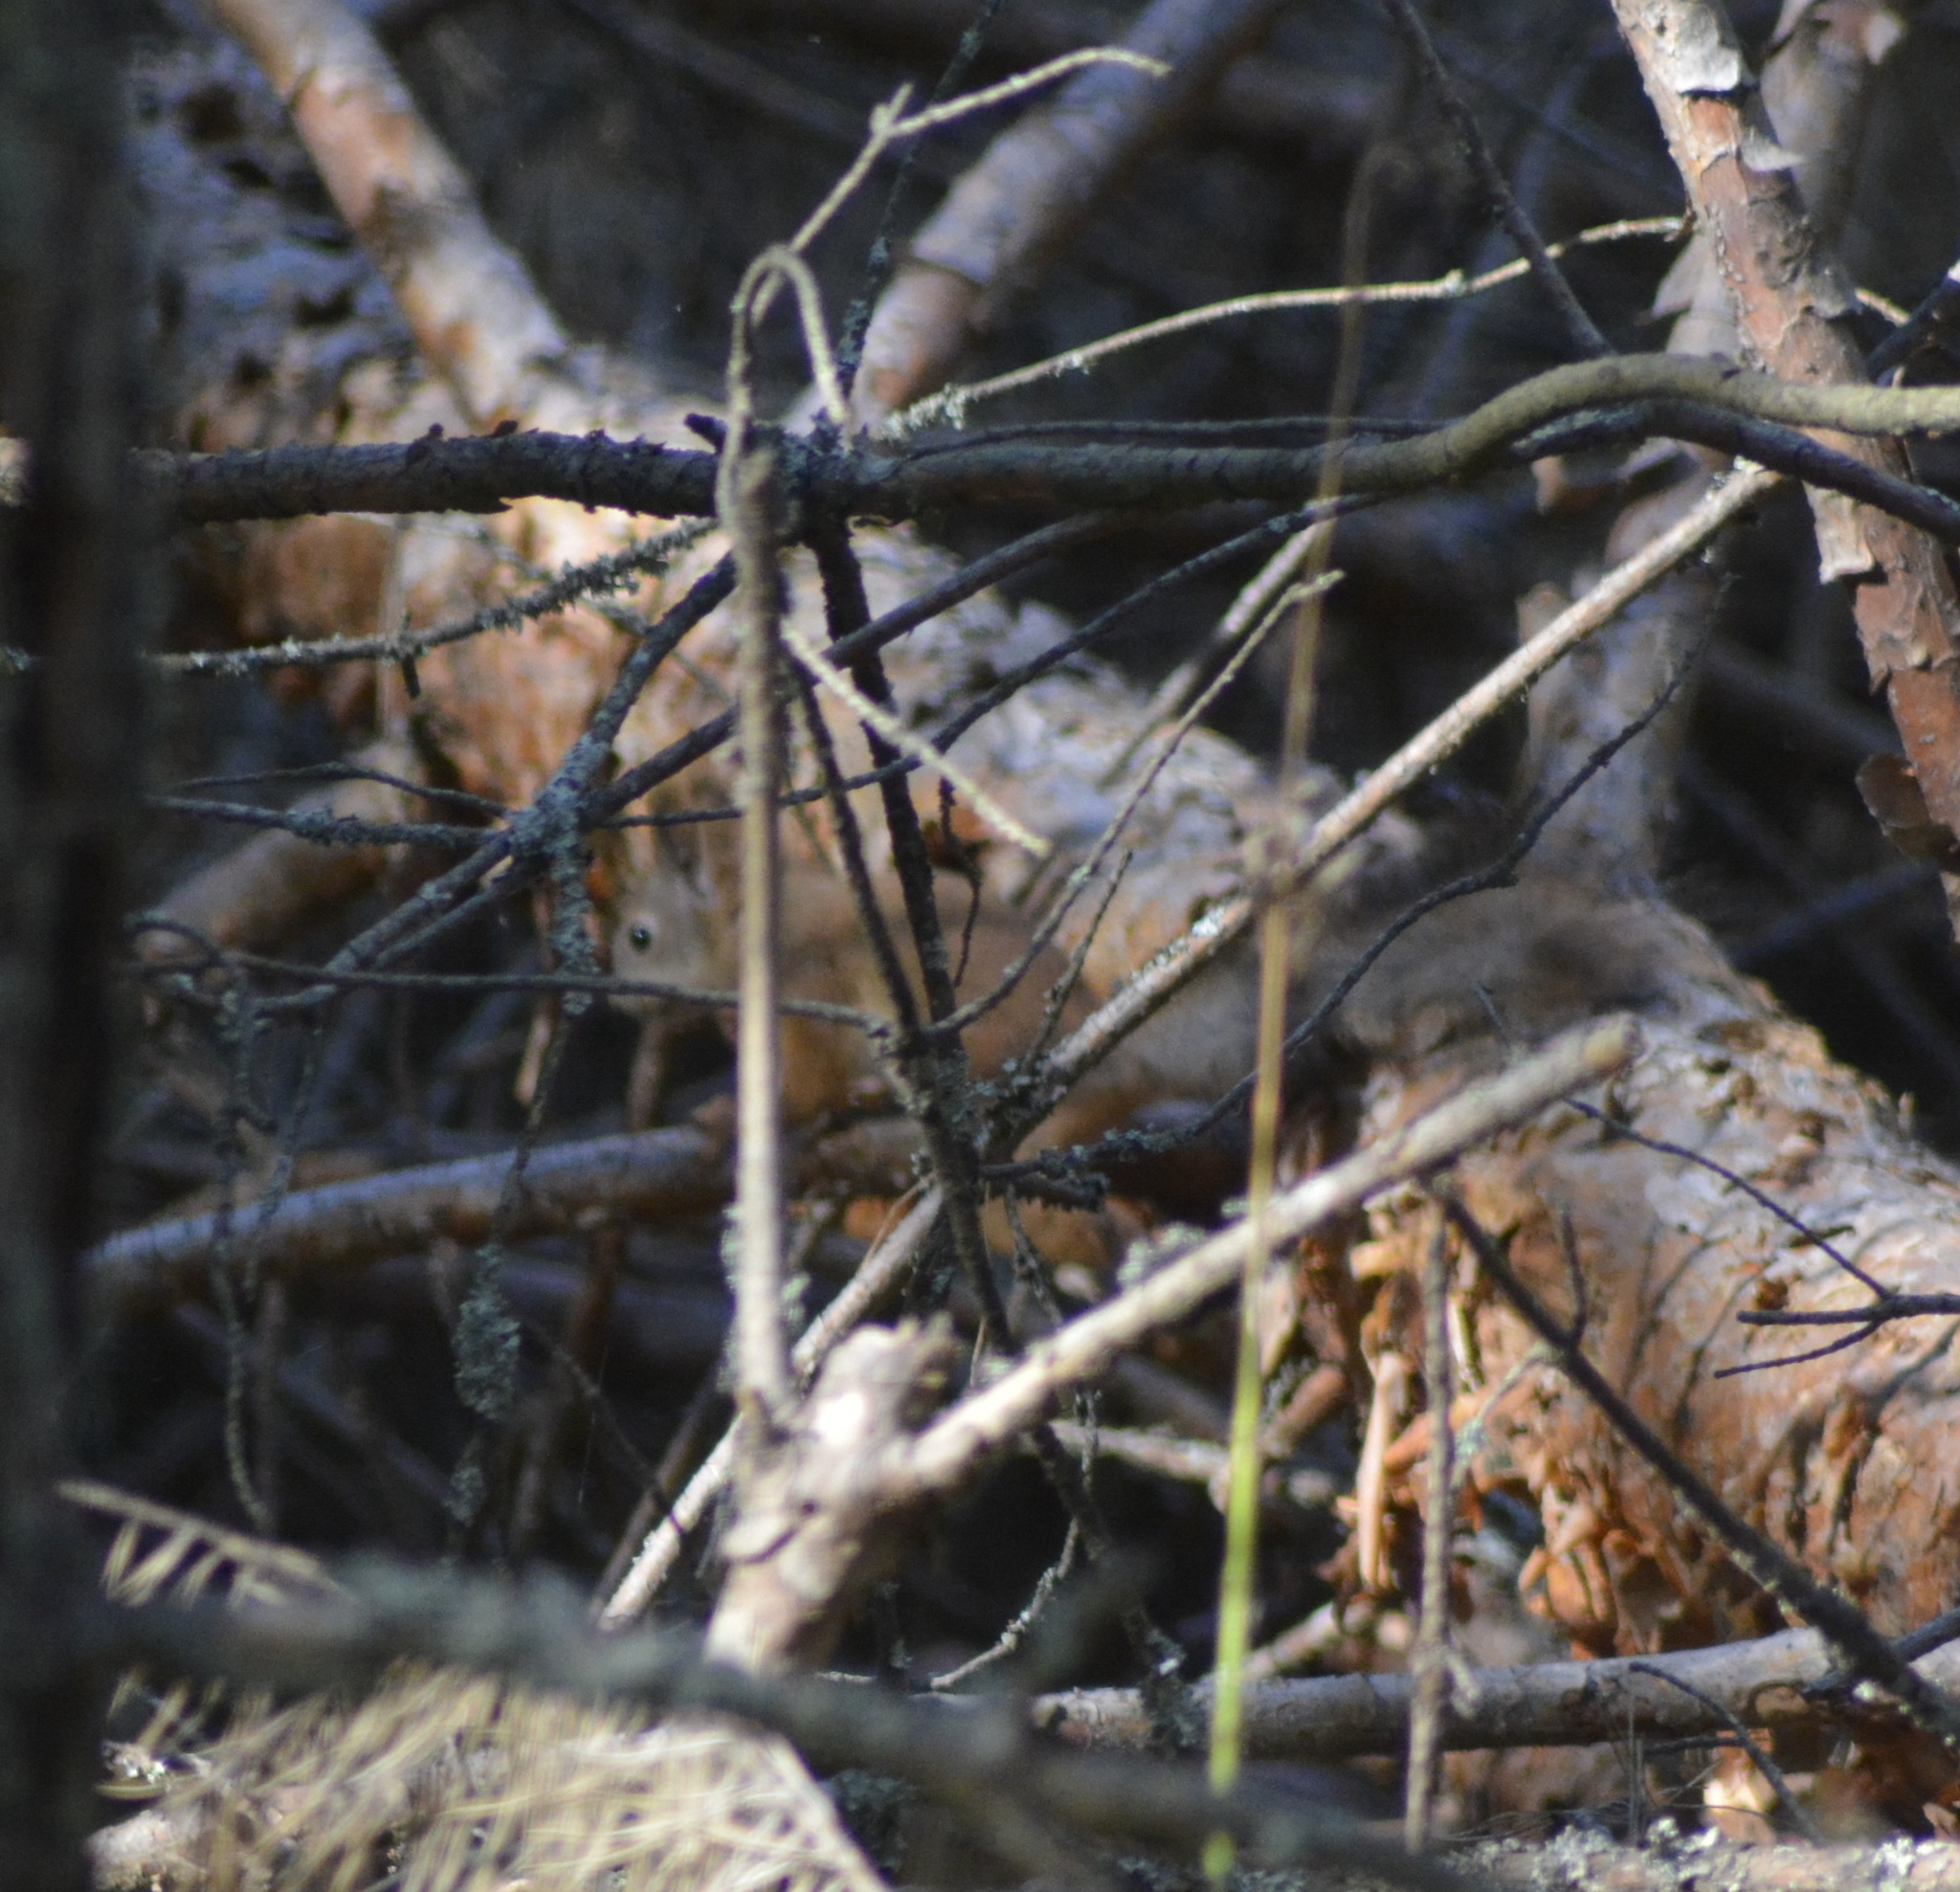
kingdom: Animalia
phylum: Chordata
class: Mammalia
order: Rodentia
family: Sciuridae
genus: Sciurus
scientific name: Sciurus vulgaris
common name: Eurasian red squirrel
